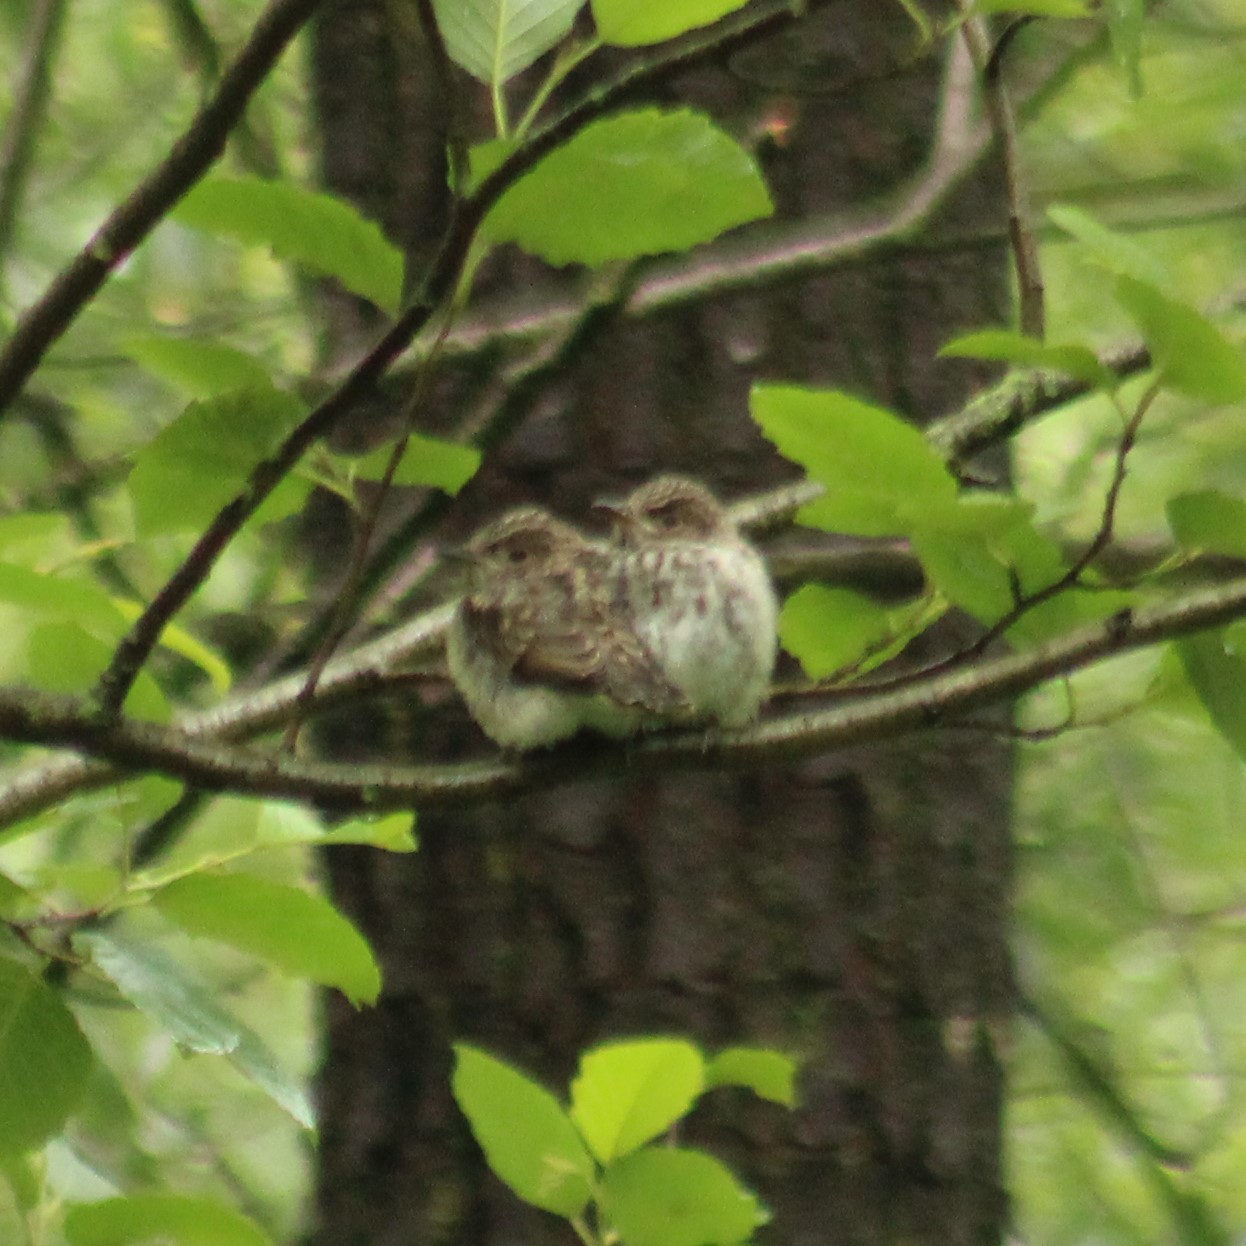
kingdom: Animalia
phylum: Chordata
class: Aves
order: Passeriformes
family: Muscicapidae
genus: Muscicapa
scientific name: Muscicapa striata
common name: Spotted flycatcher
